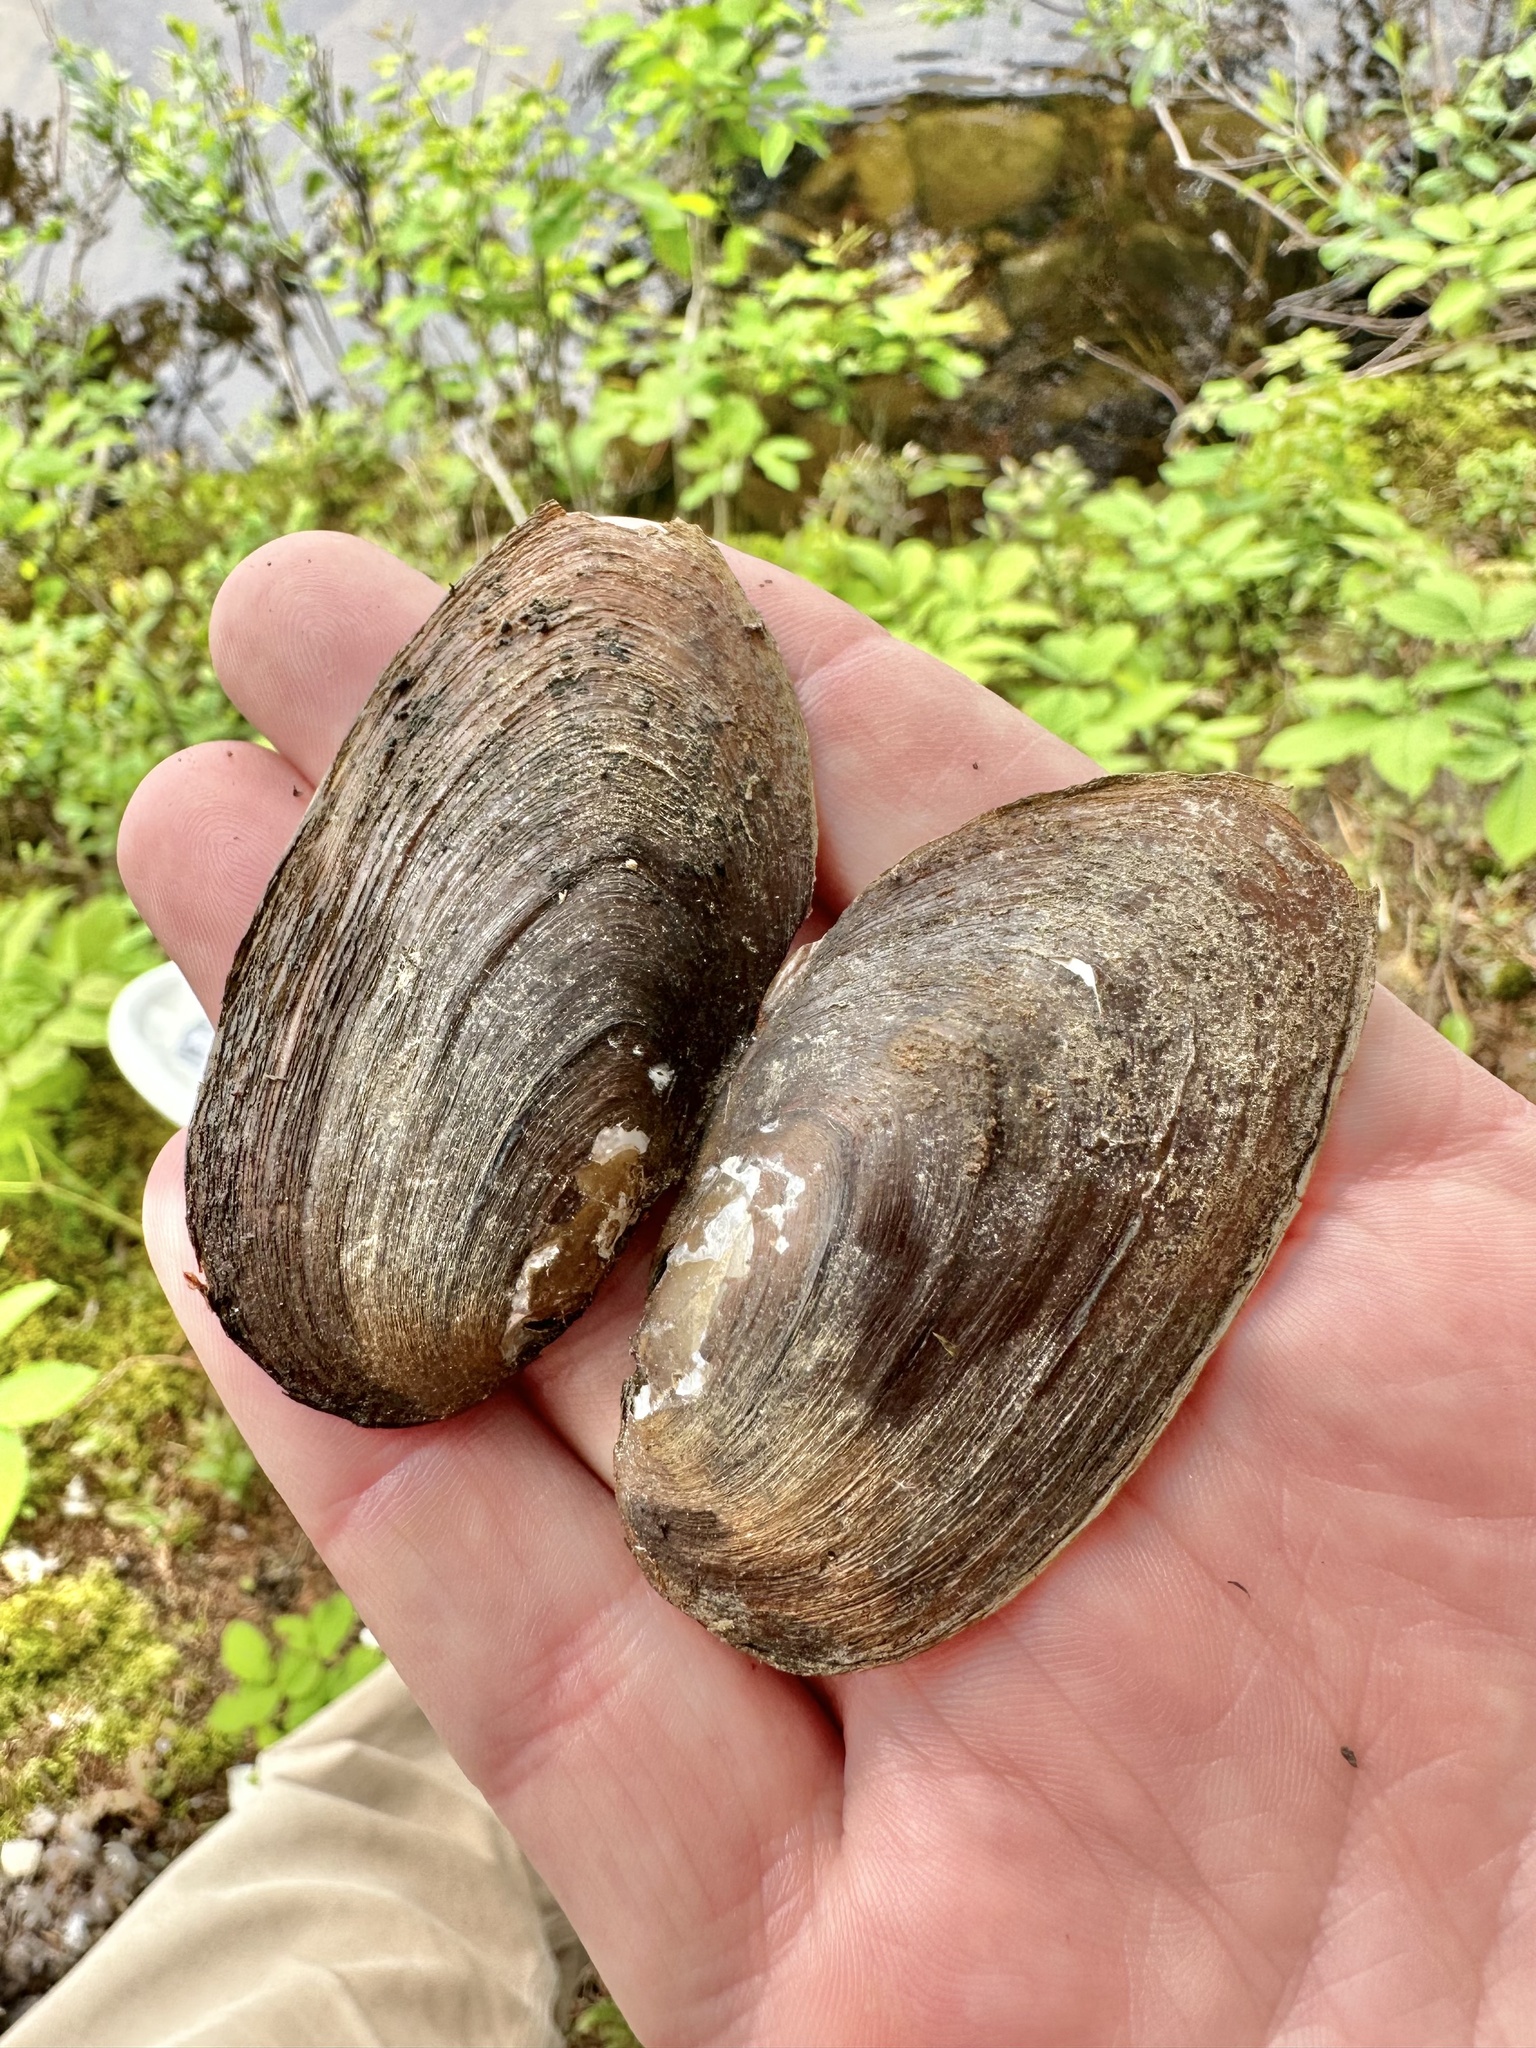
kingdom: Animalia
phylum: Mollusca
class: Bivalvia
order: Unionida
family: Unionidae
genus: Elliptio
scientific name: Elliptio complanata
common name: Eastern elliptio
